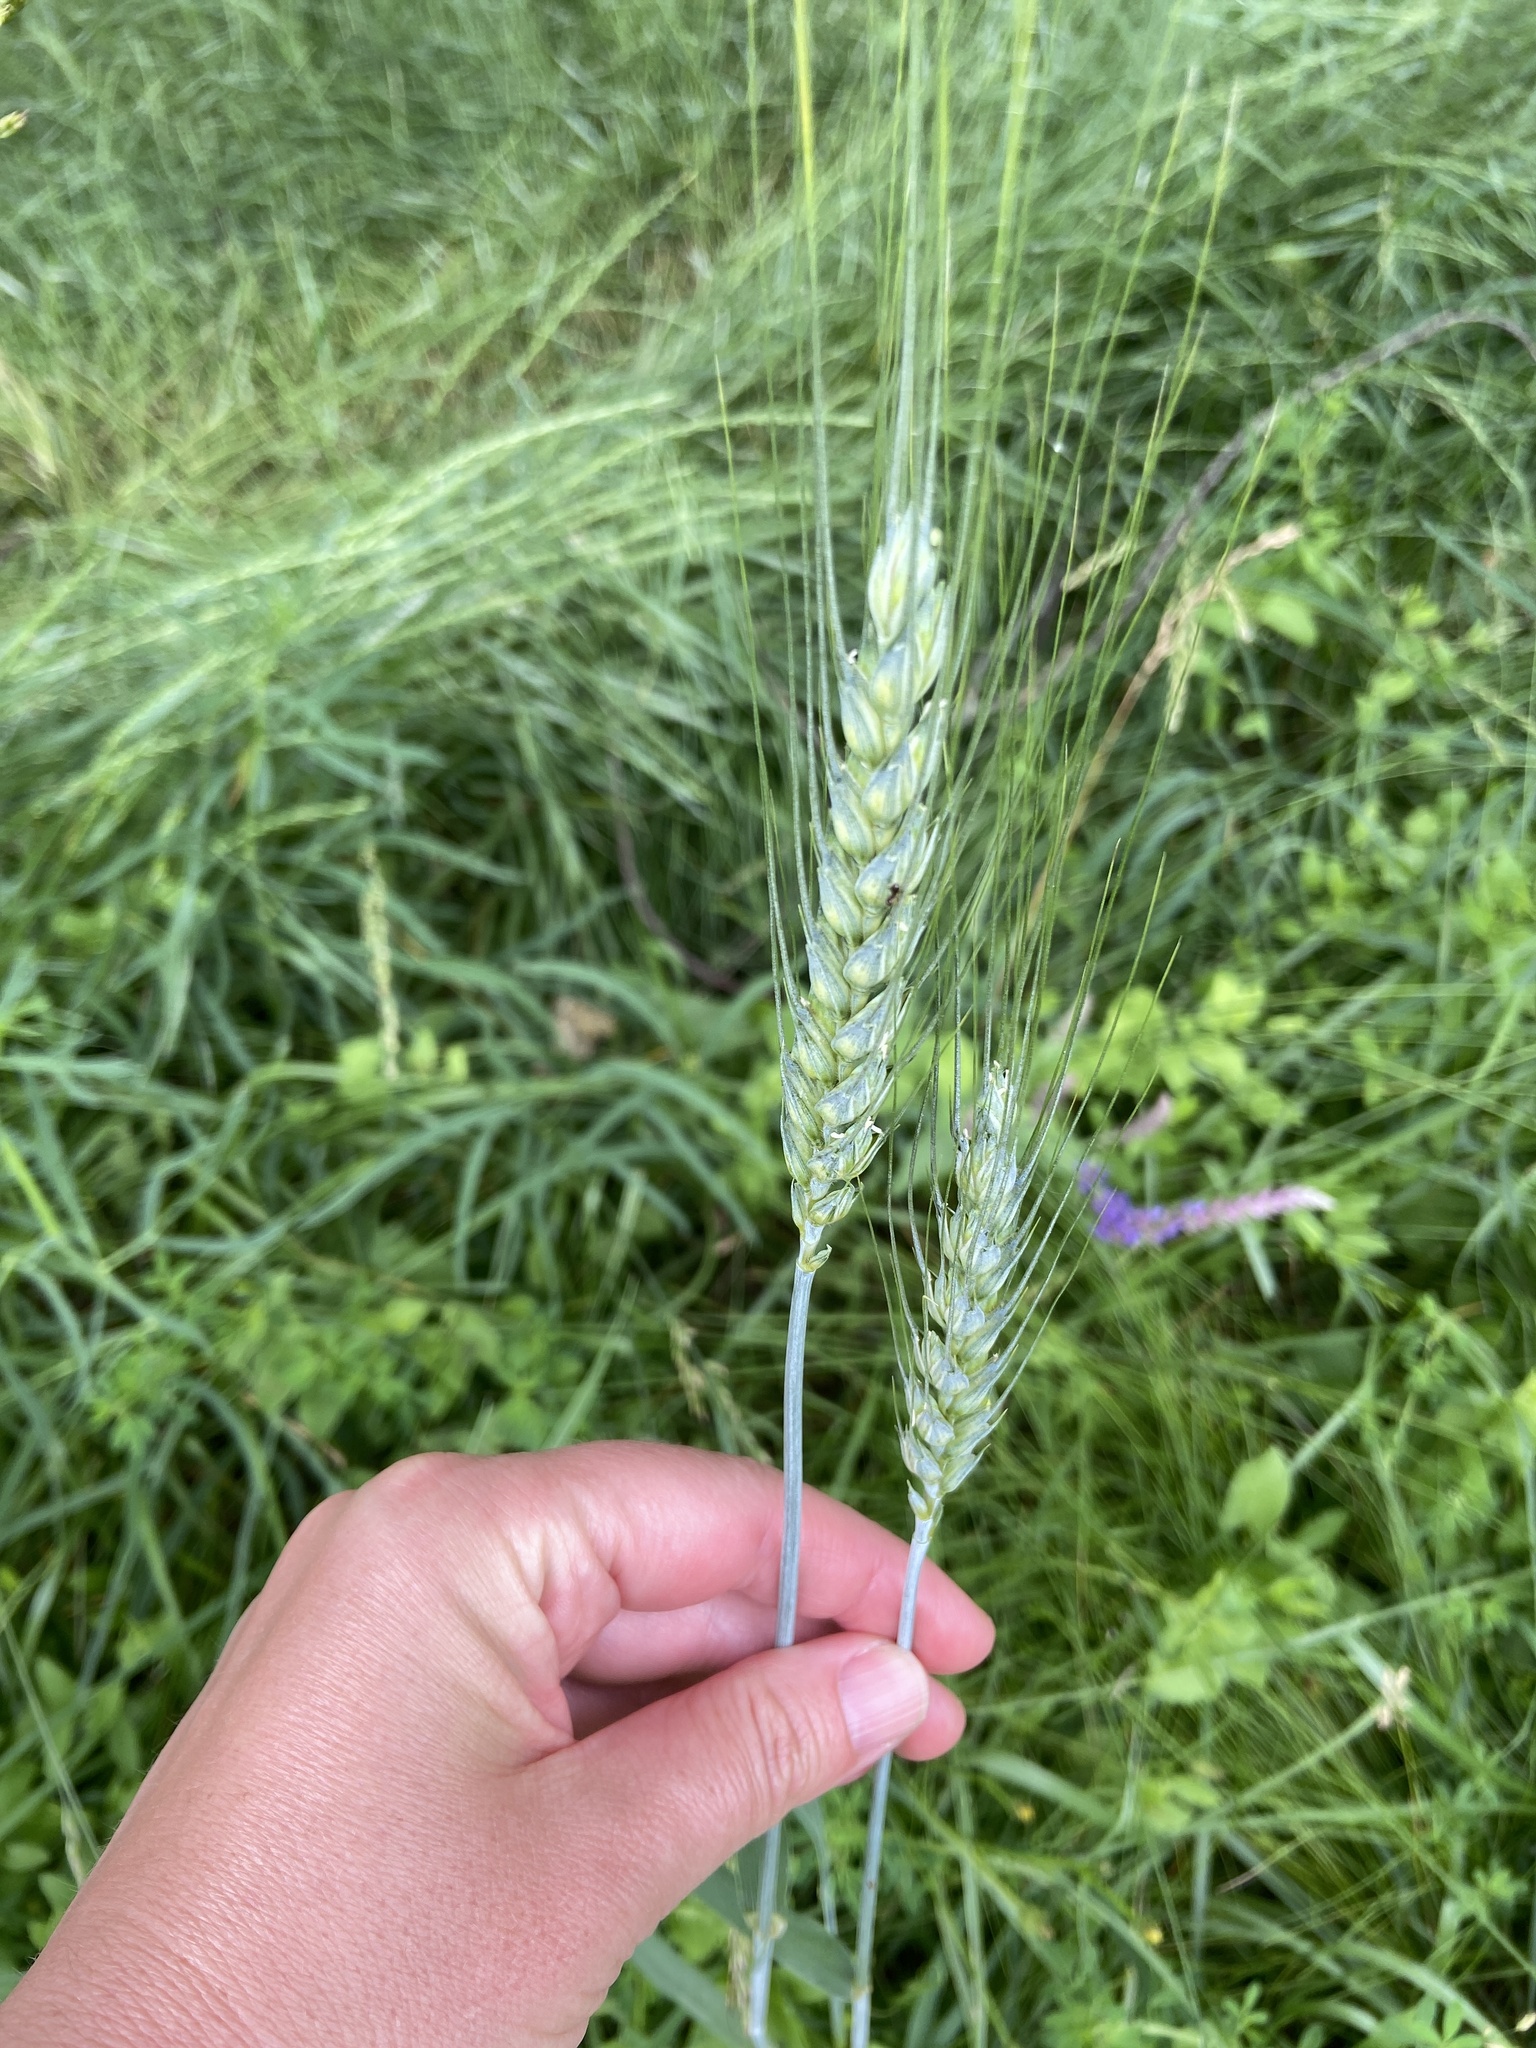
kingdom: Plantae
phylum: Tracheophyta
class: Liliopsida
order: Poales
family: Poaceae
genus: Triticum
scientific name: Triticum aestivum
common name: Common wheat
